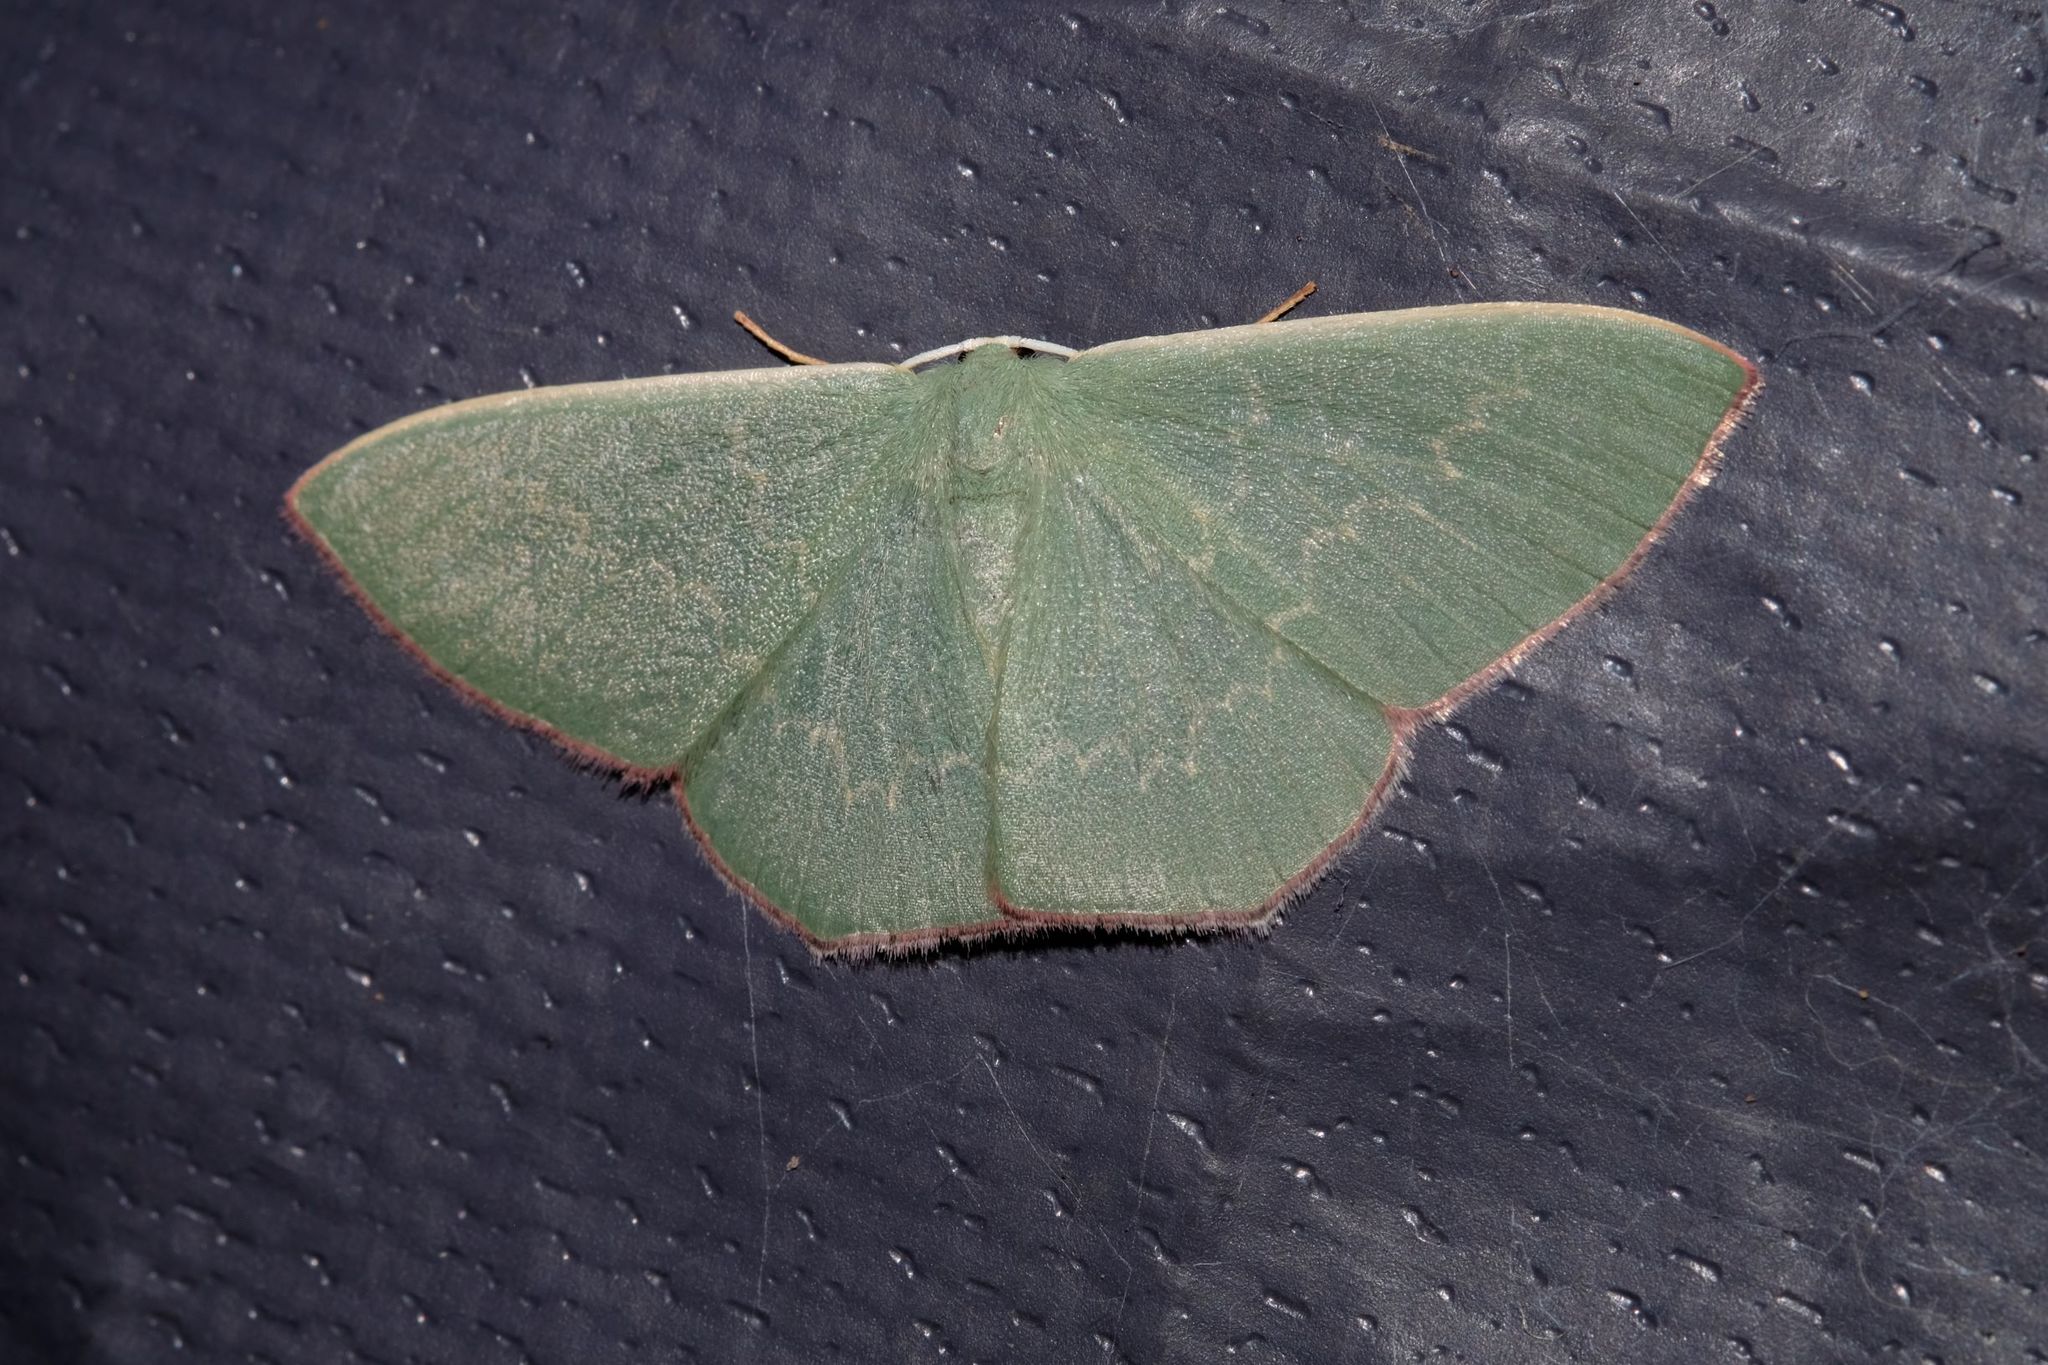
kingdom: Animalia
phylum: Arthropoda
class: Insecta
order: Lepidoptera
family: Geometridae
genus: Prasinocyma
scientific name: Prasinocyma semicrocea
